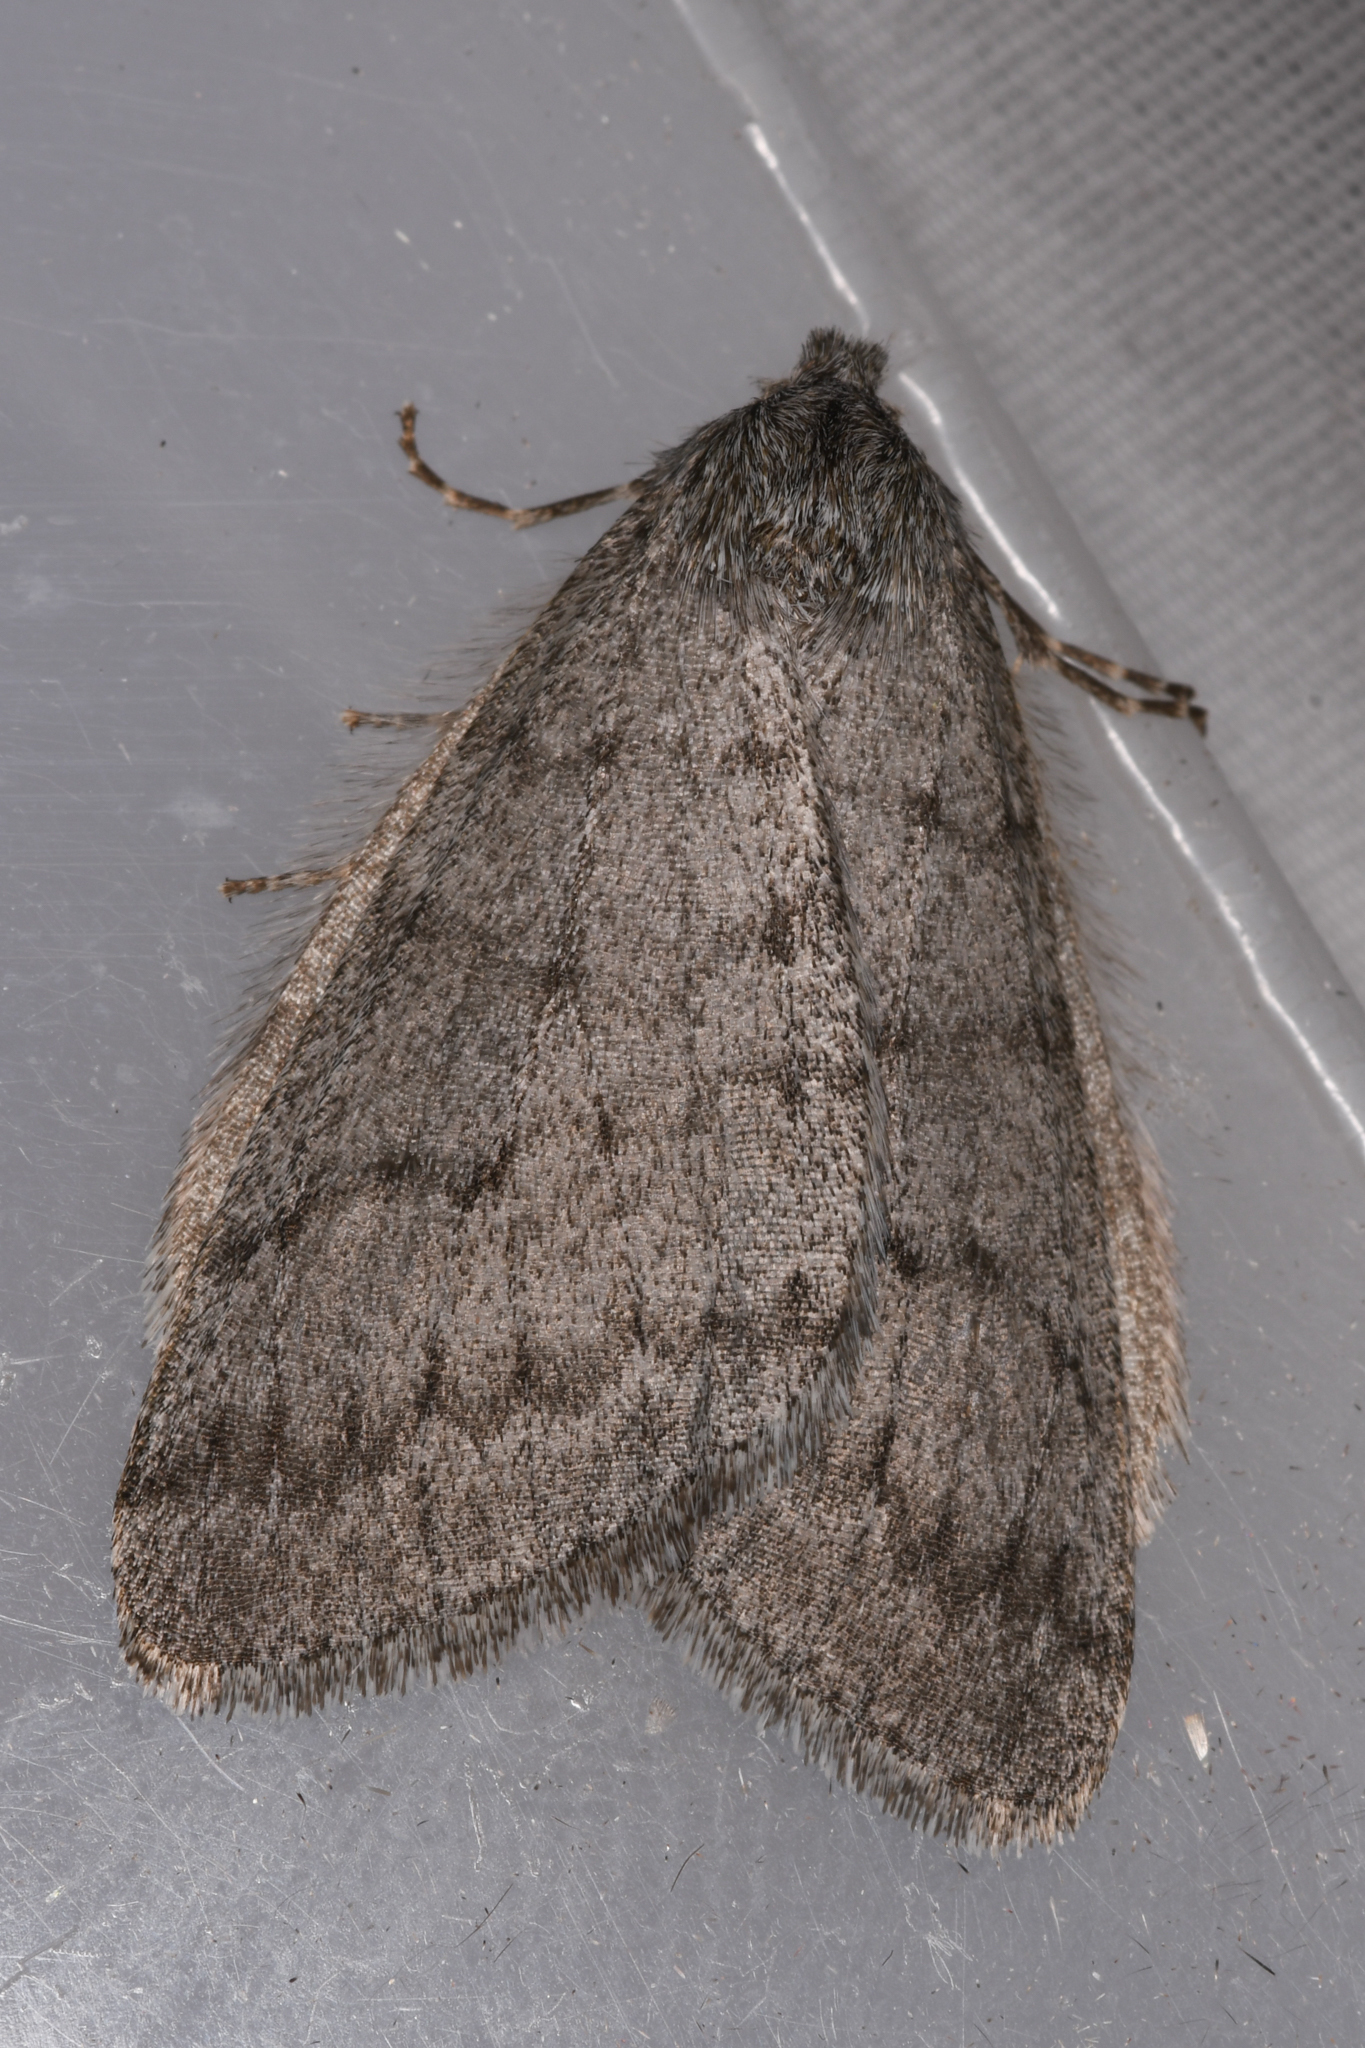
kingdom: Animalia
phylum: Arthropoda
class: Insecta
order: Lepidoptera
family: Geometridae
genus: Phigalia
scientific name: Phigalia plumogeraria
